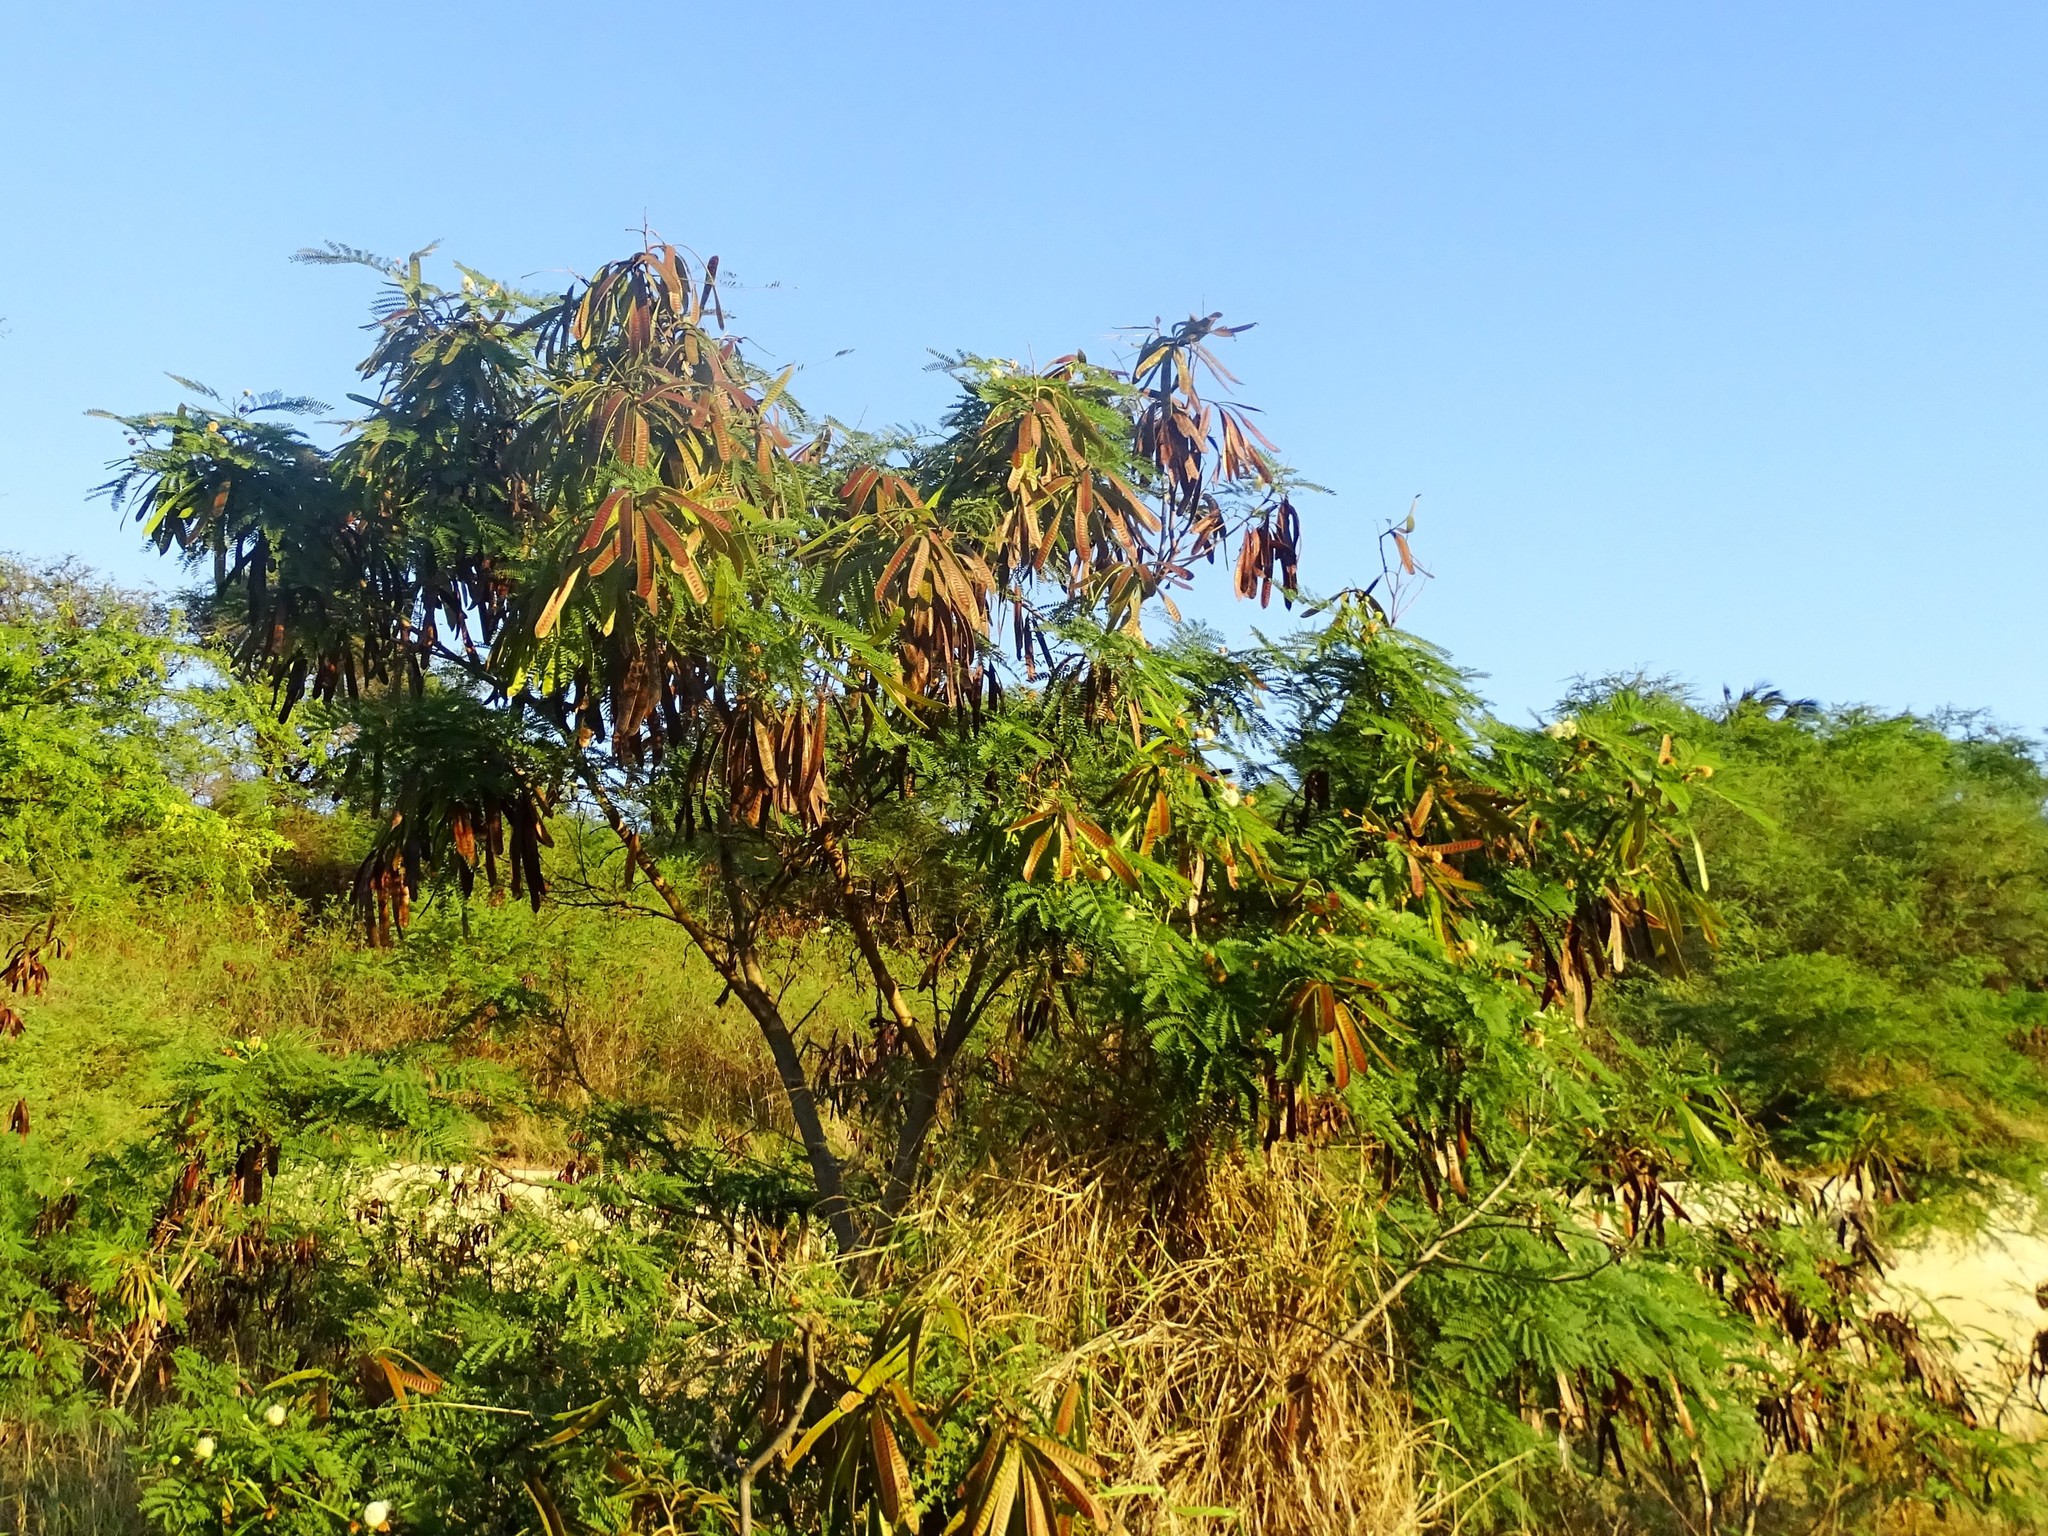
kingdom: Plantae
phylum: Tracheophyta
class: Magnoliopsida
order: Fabales
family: Fabaceae
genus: Leucaena
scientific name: Leucaena leucocephala
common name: White leadtree
